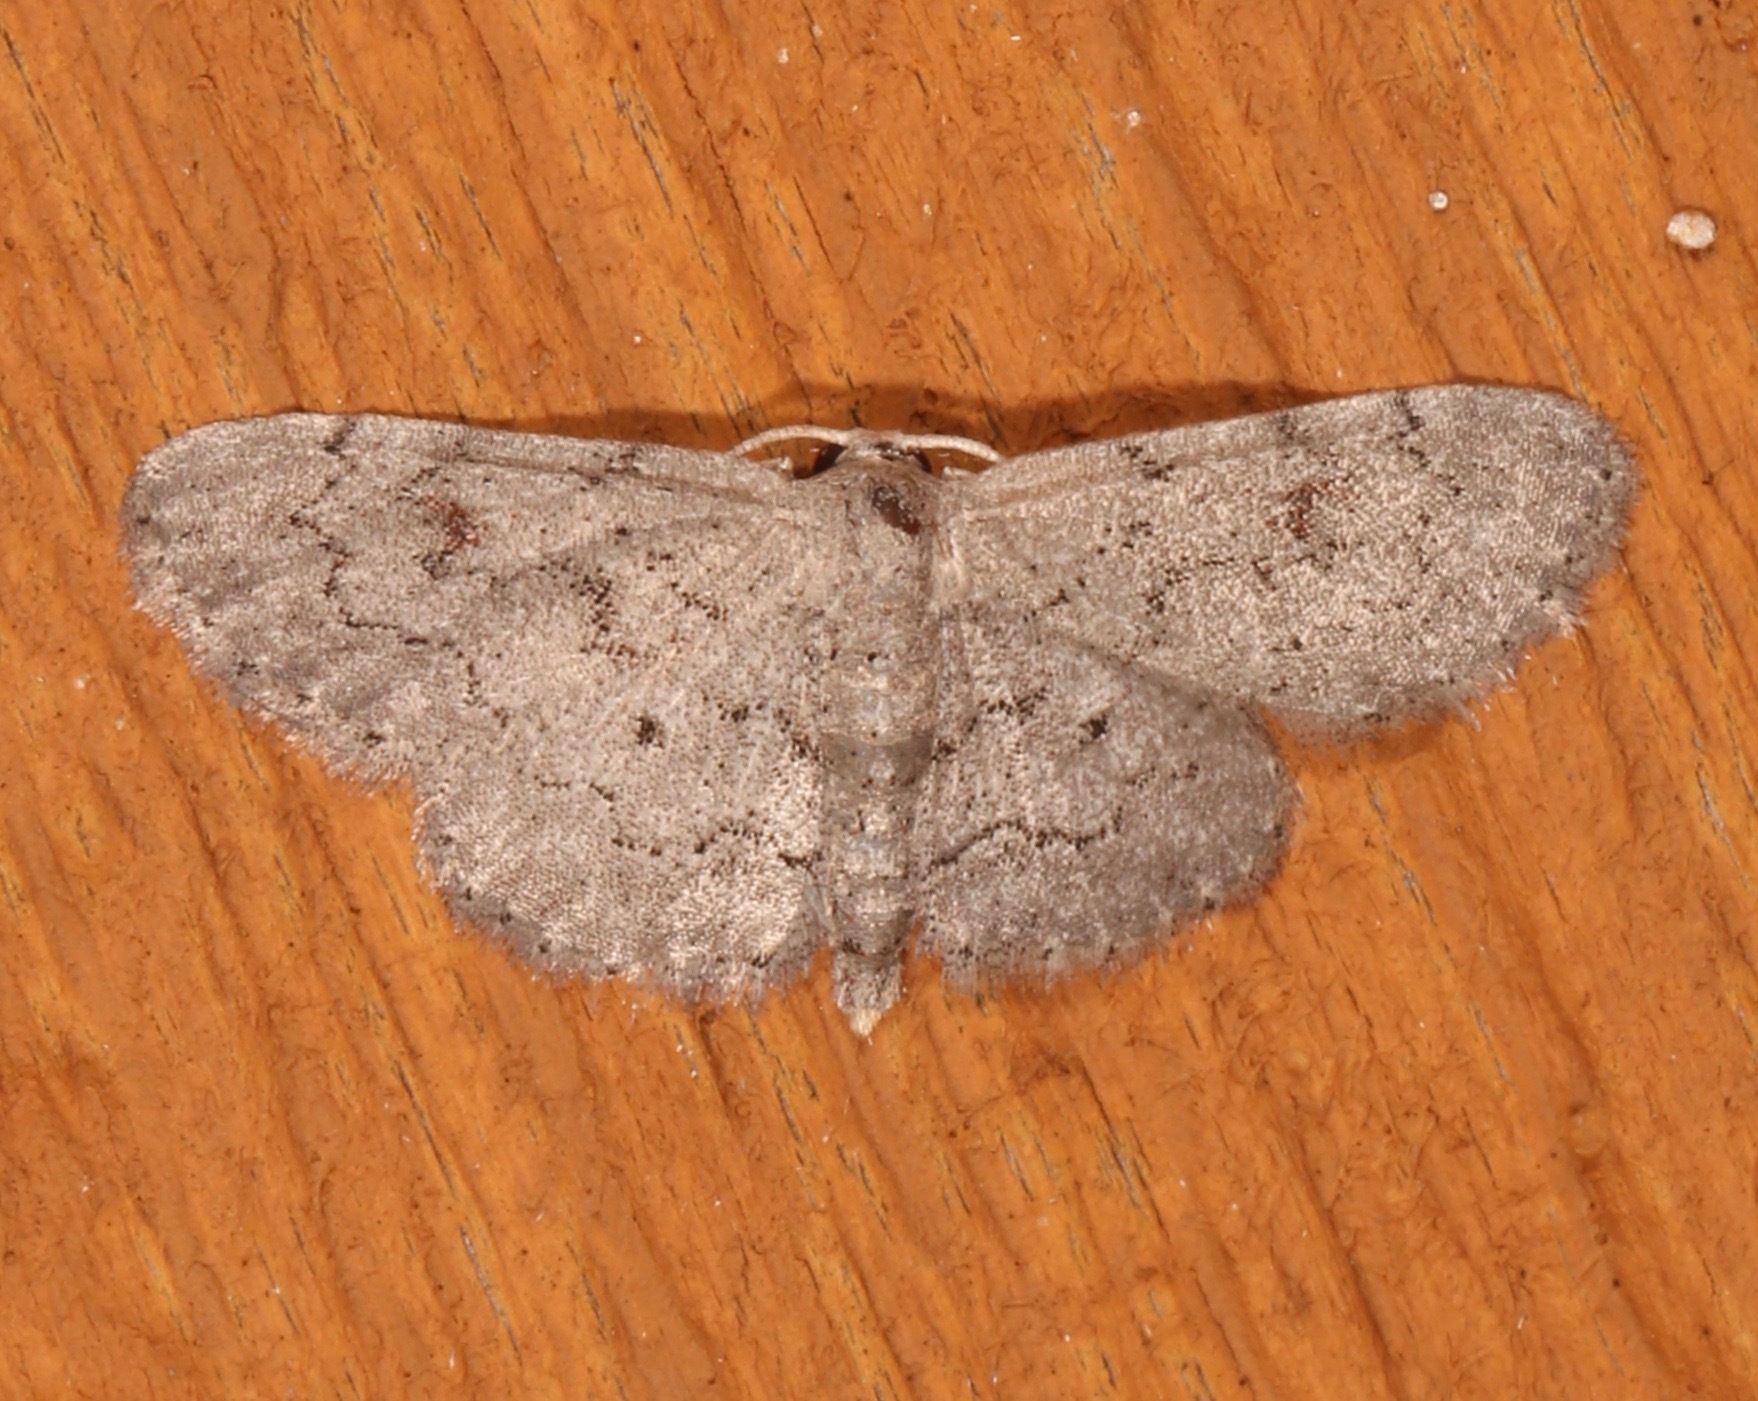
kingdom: Animalia
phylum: Arthropoda
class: Insecta
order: Lepidoptera
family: Geometridae
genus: Idaea
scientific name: Idaea violacearia
